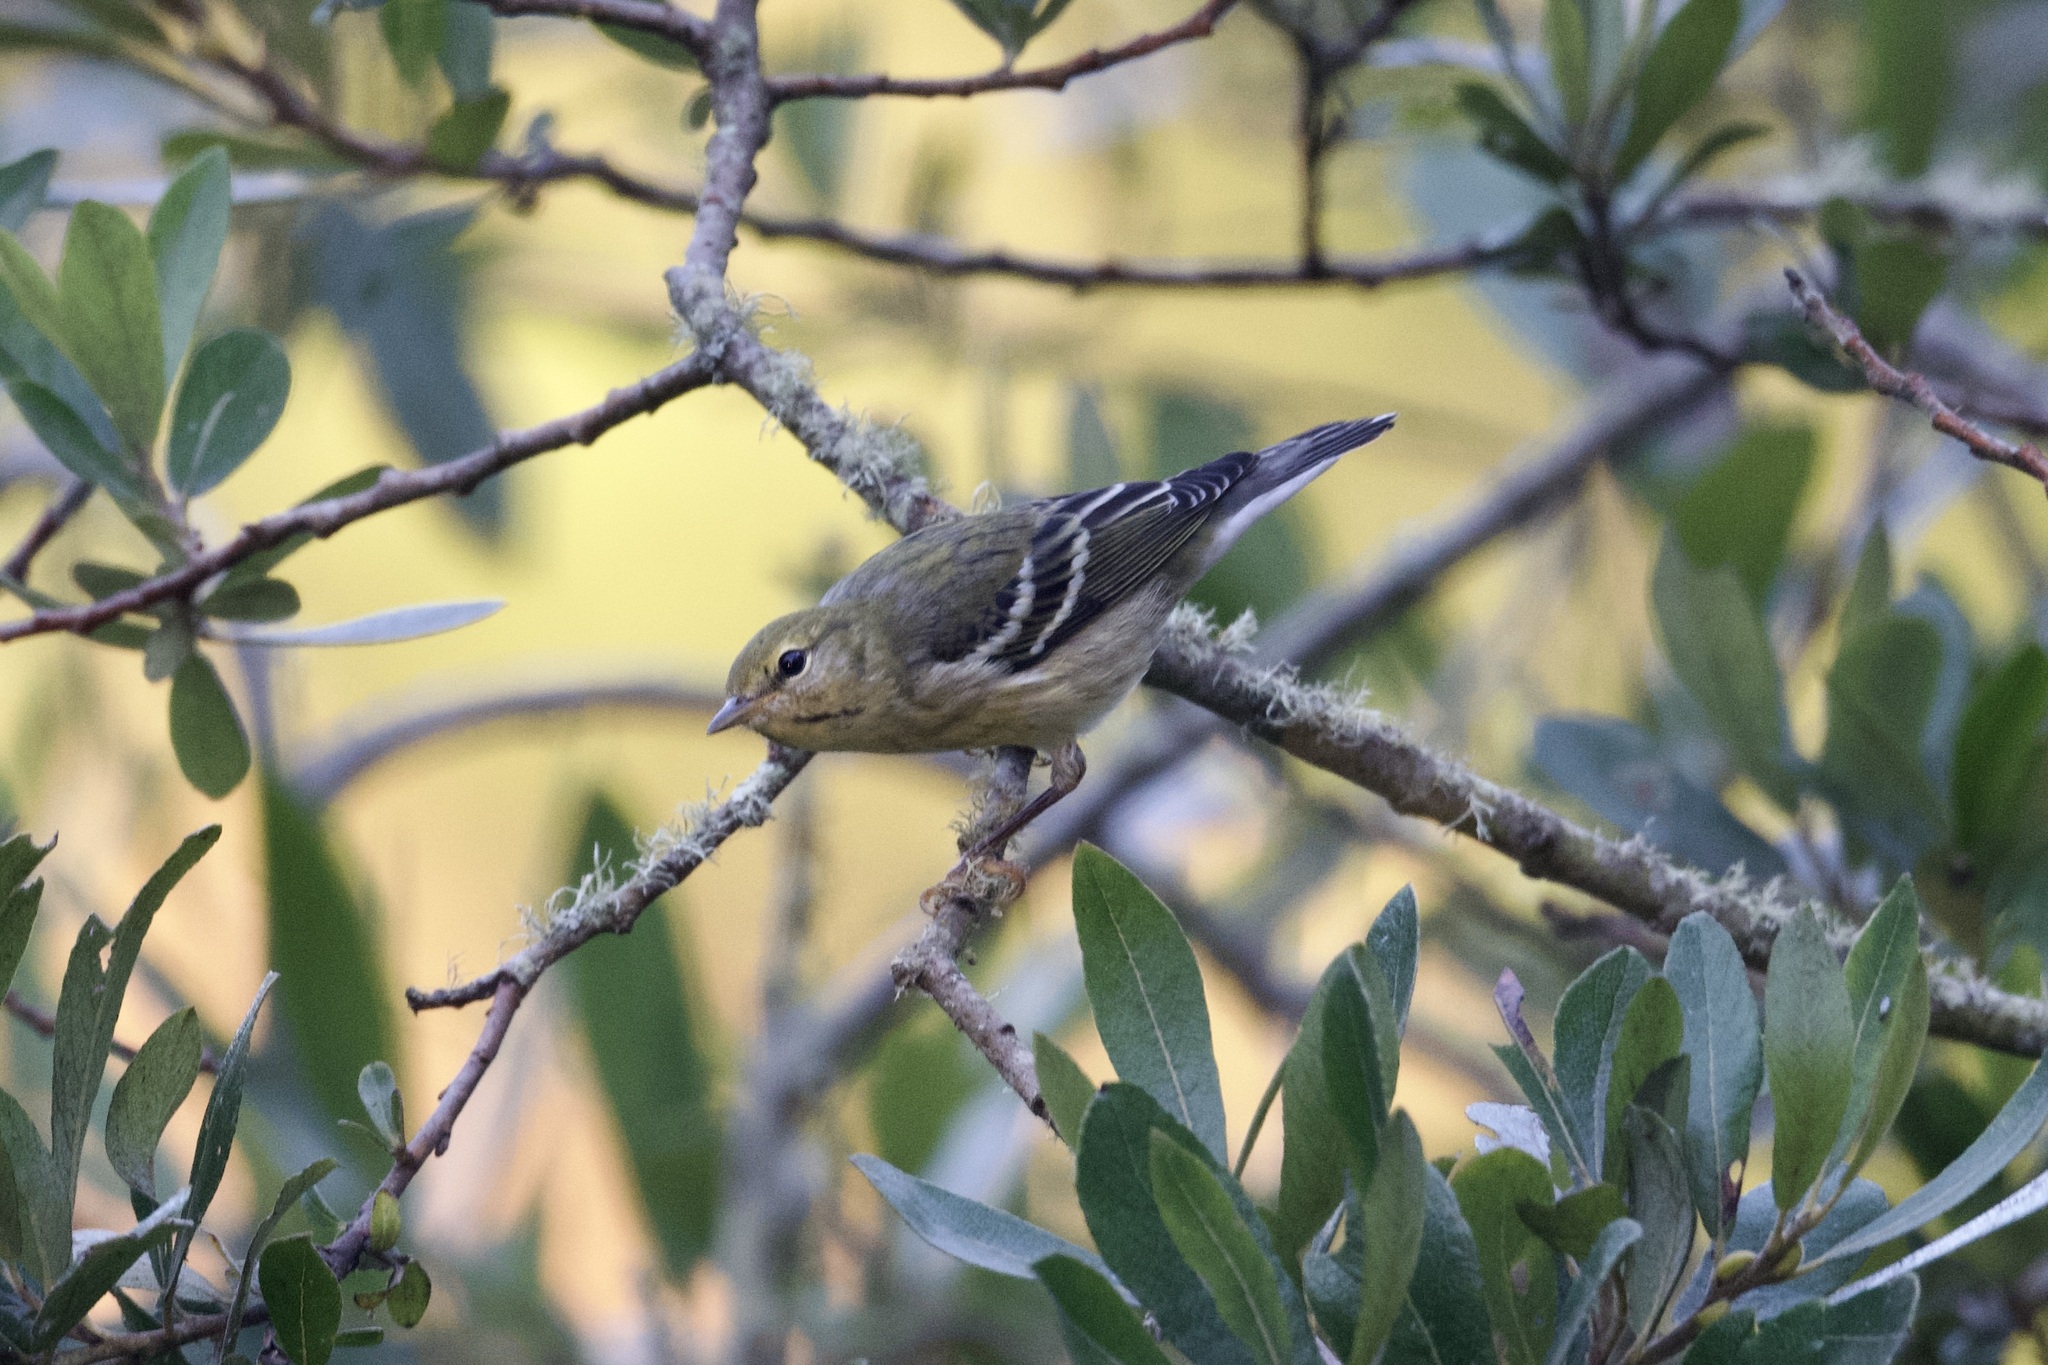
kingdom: Animalia
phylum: Chordata
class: Aves
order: Passeriformes
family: Parulidae
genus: Setophaga
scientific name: Setophaga striata
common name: Blackpoll warbler
